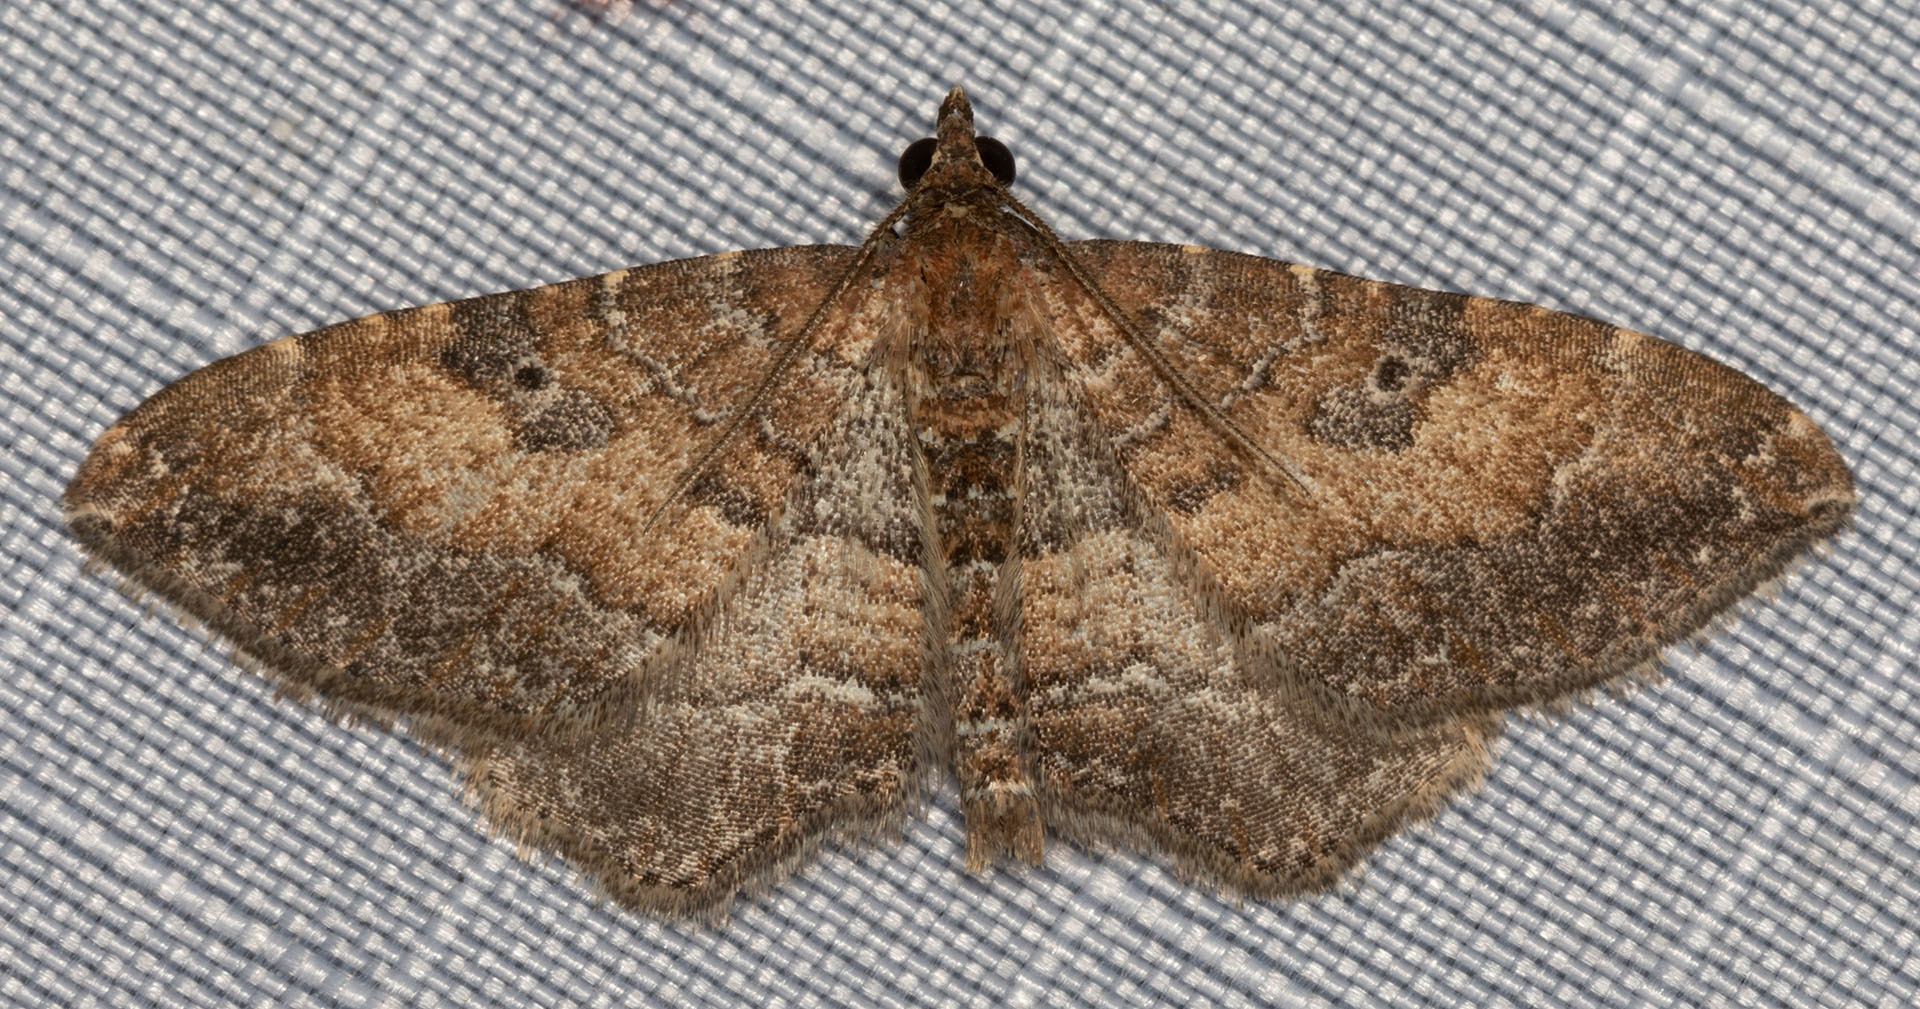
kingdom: Animalia
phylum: Arthropoda
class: Insecta
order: Lepidoptera
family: Geometridae
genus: Orthonama
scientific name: Orthonama obstipata
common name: The gem
